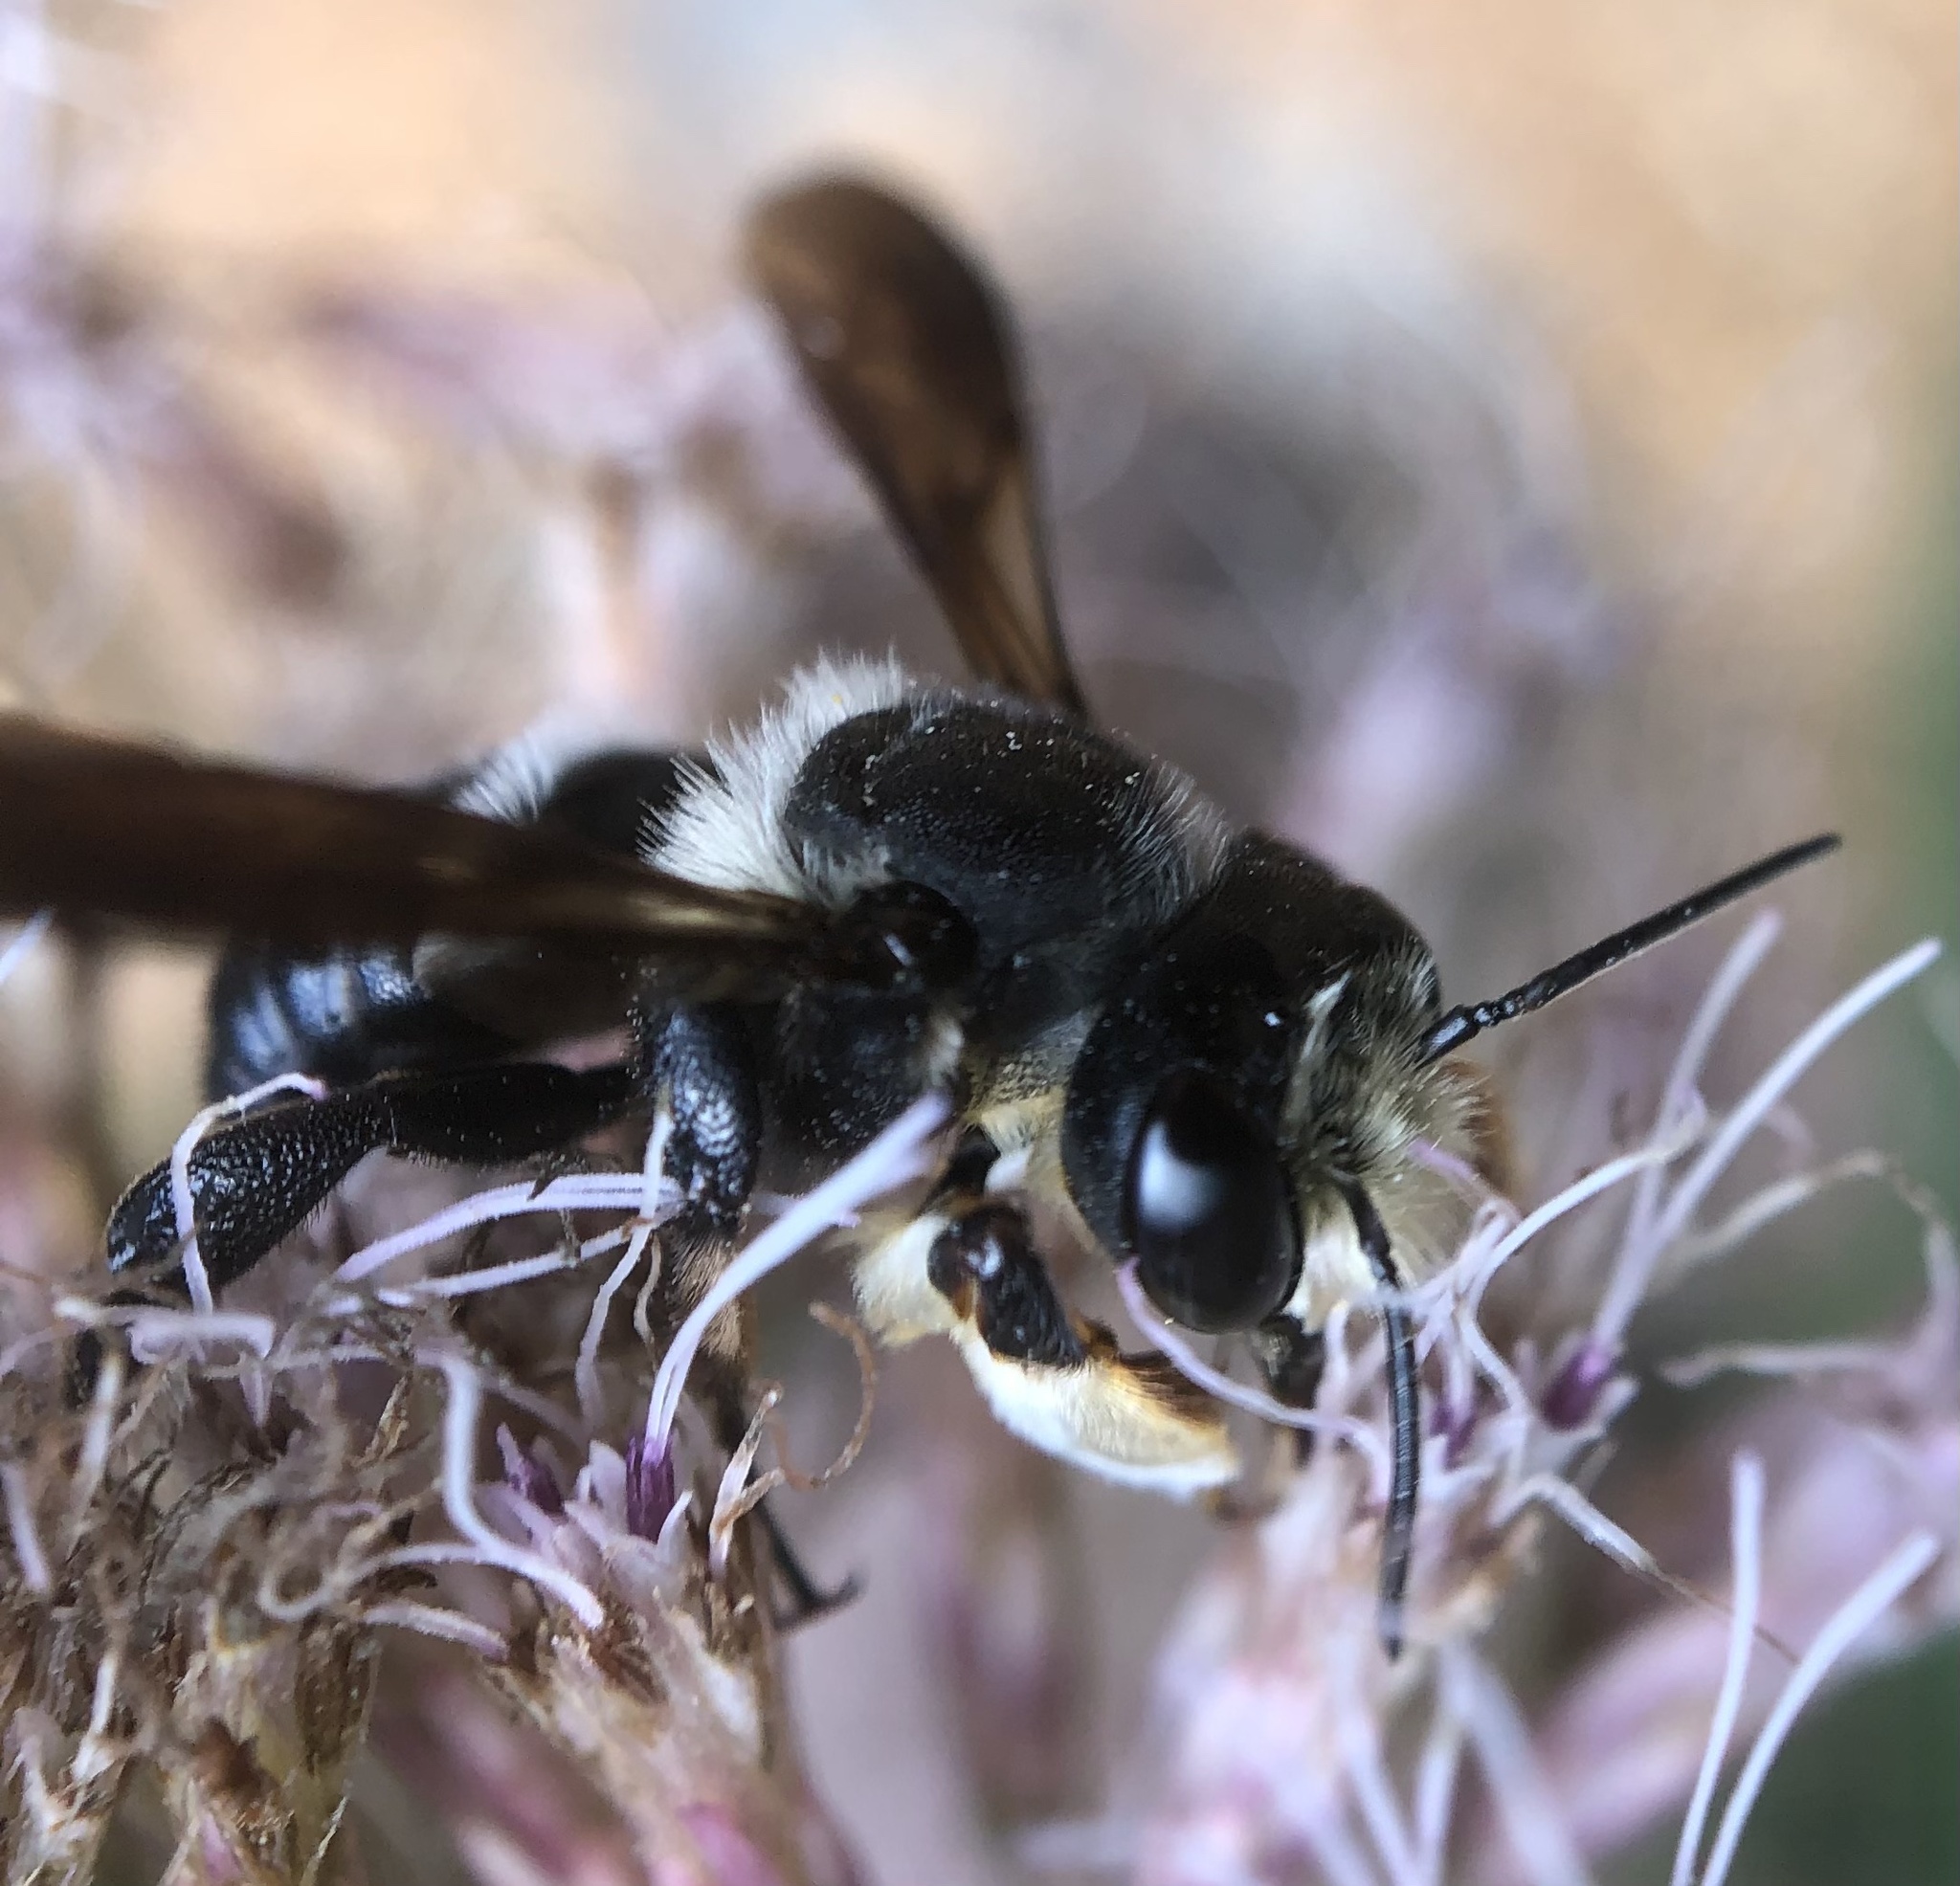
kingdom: Animalia
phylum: Arthropoda
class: Insecta
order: Hymenoptera
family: Megachilidae
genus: Megachile
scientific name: Megachile xylocopoides
